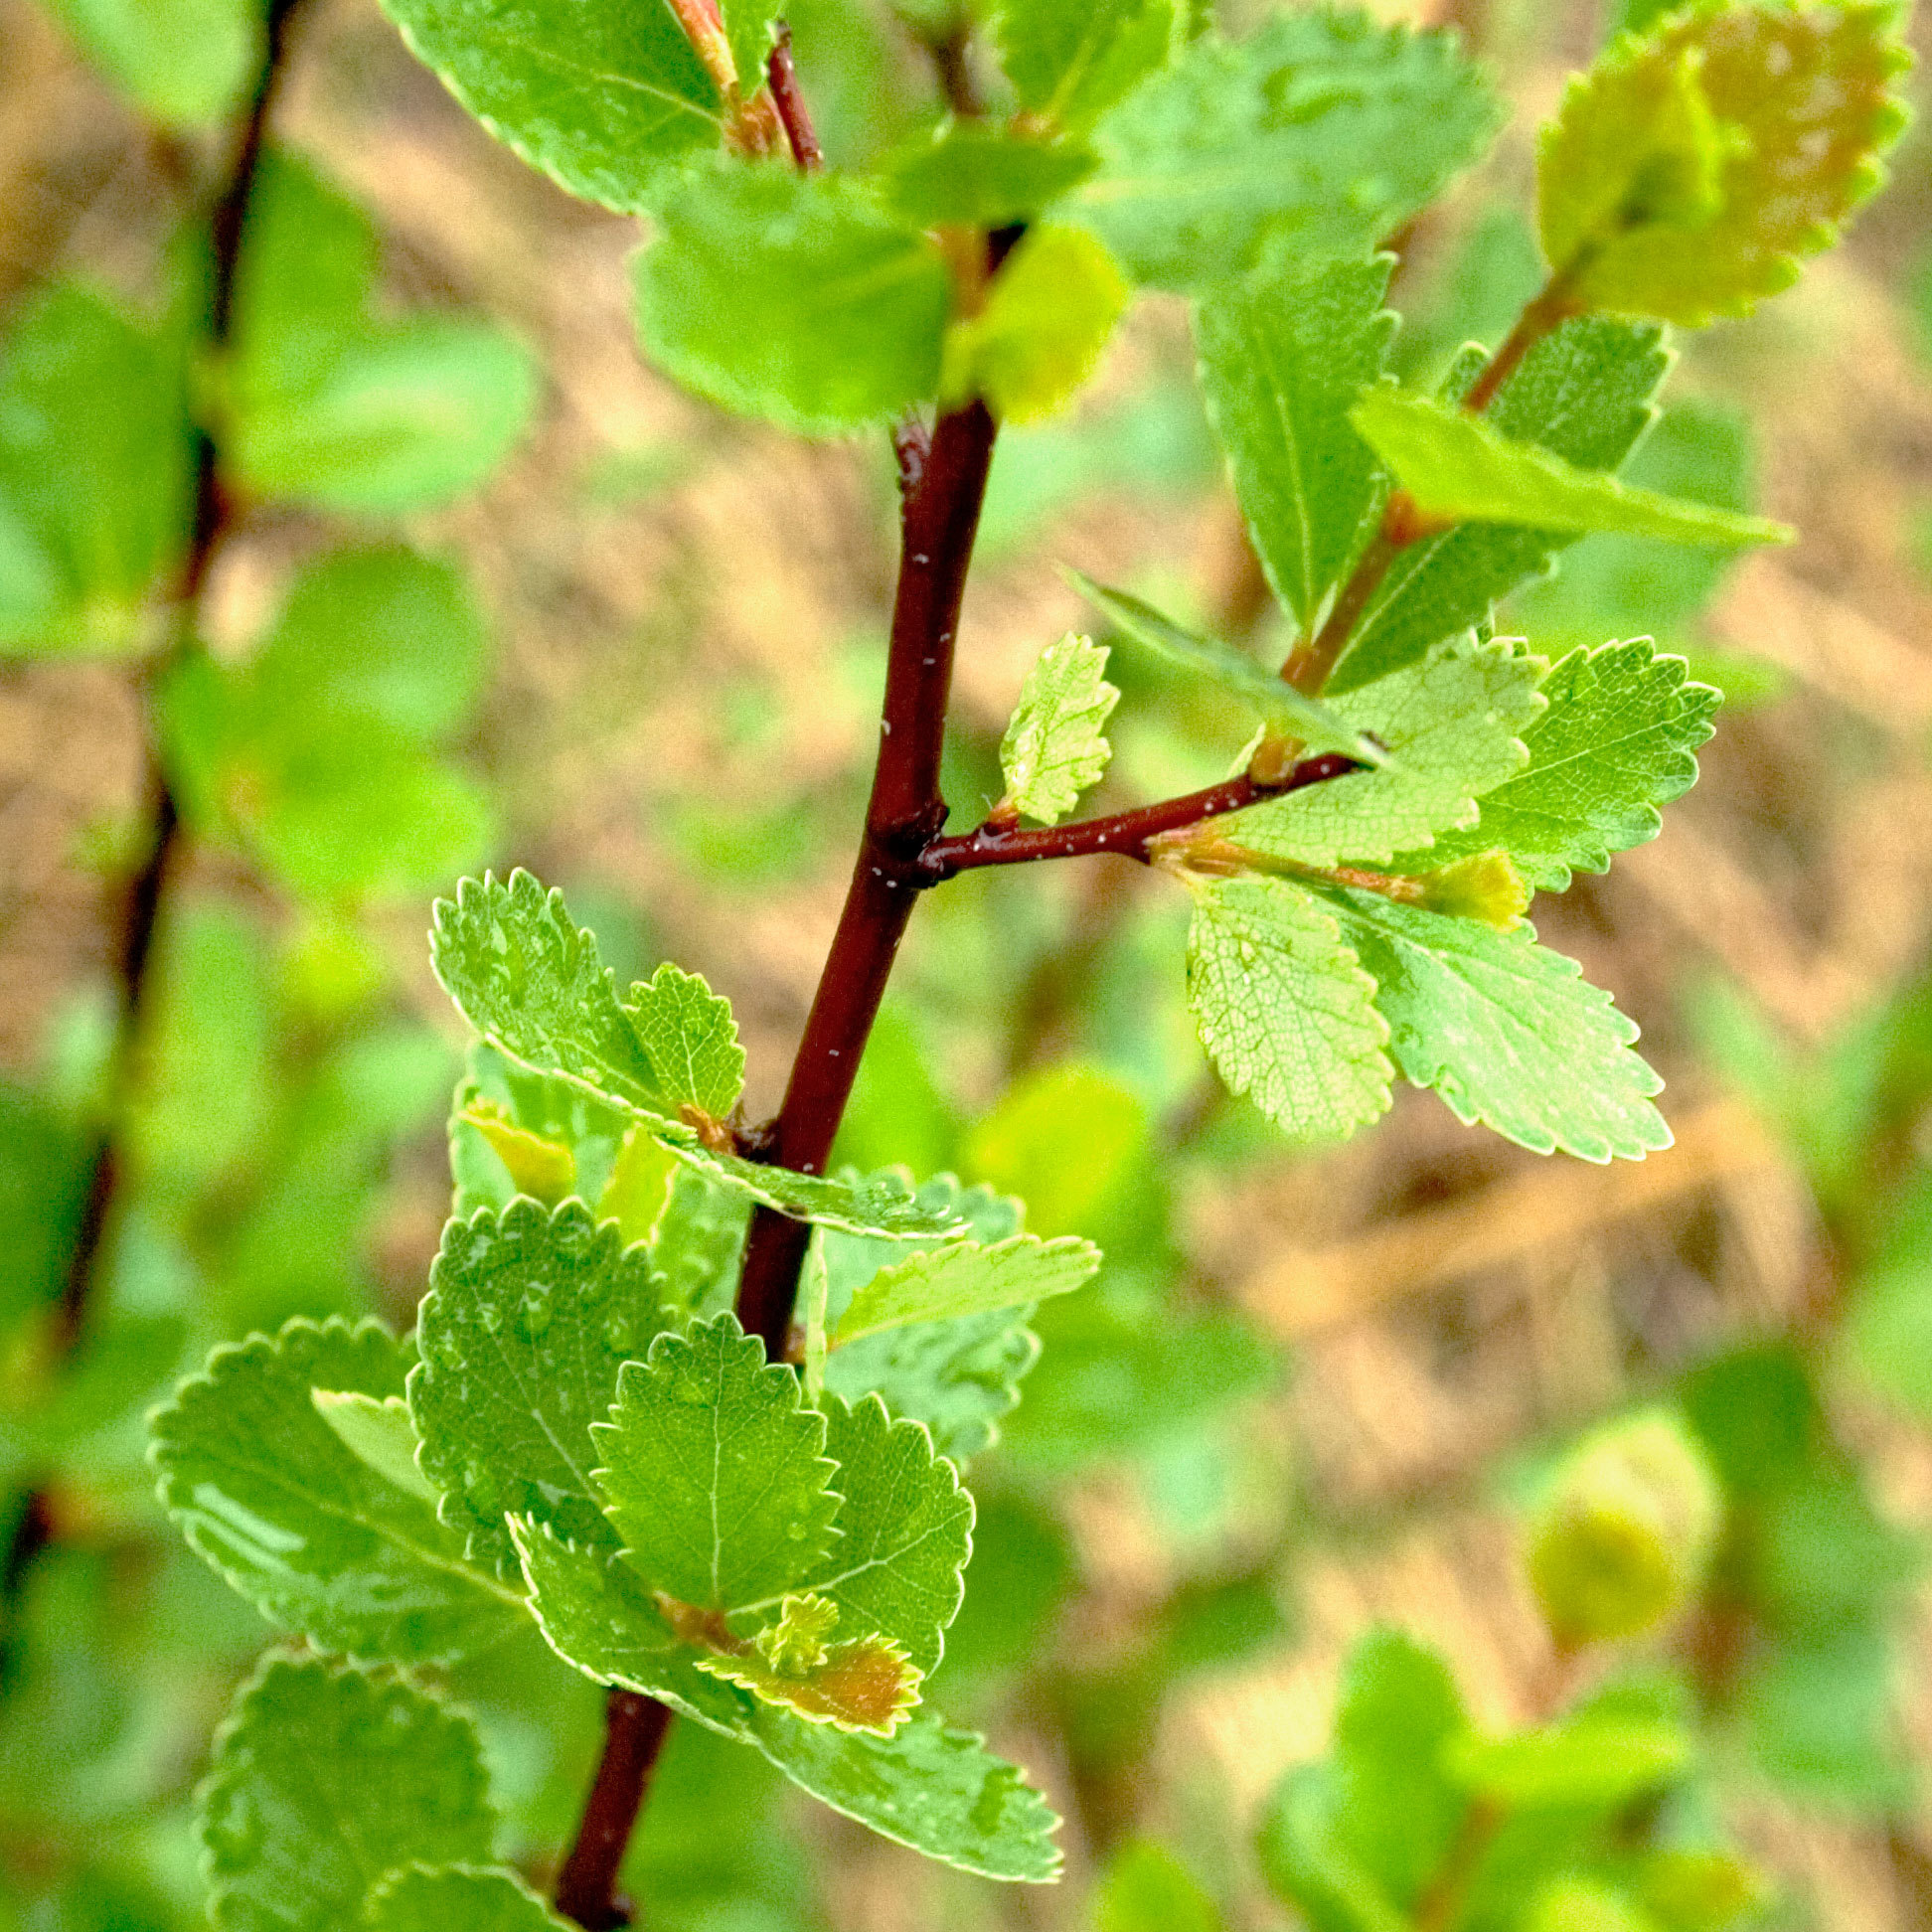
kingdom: Plantae
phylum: Tracheophyta
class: Magnoliopsida
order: Fagales
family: Betulaceae
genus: Betula
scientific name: Betula pumila
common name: Bog birch
